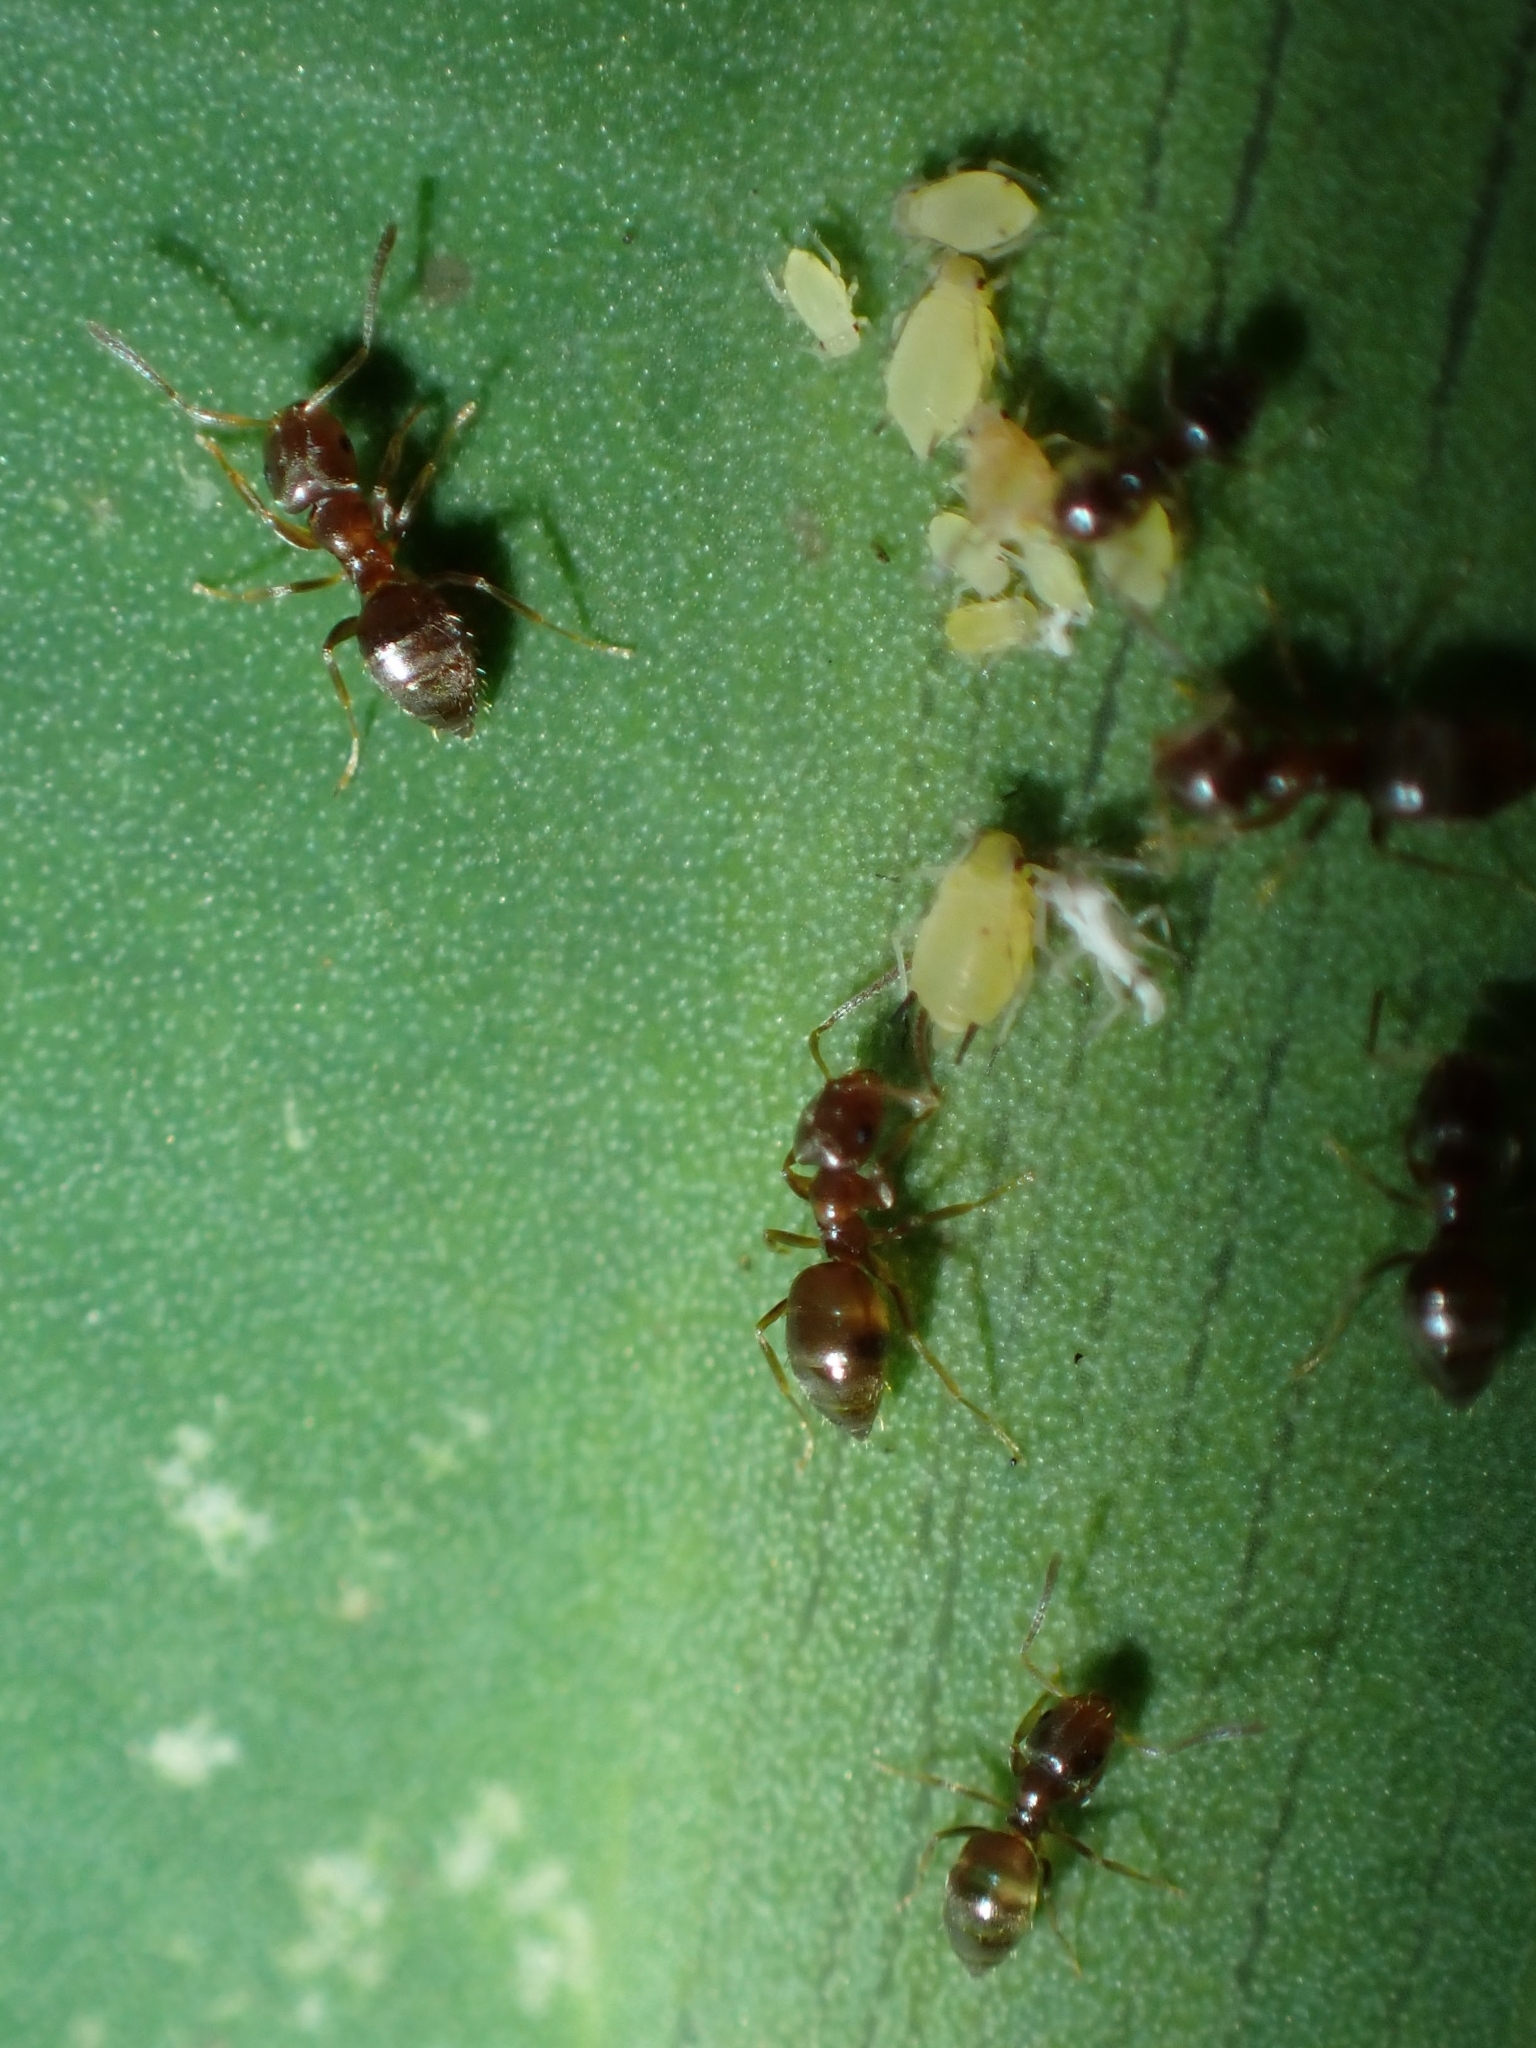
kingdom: Animalia
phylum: Arthropoda
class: Insecta
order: Hymenoptera
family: Formicidae
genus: Brachymyrmex
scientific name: Brachymyrmex cordemoyi
